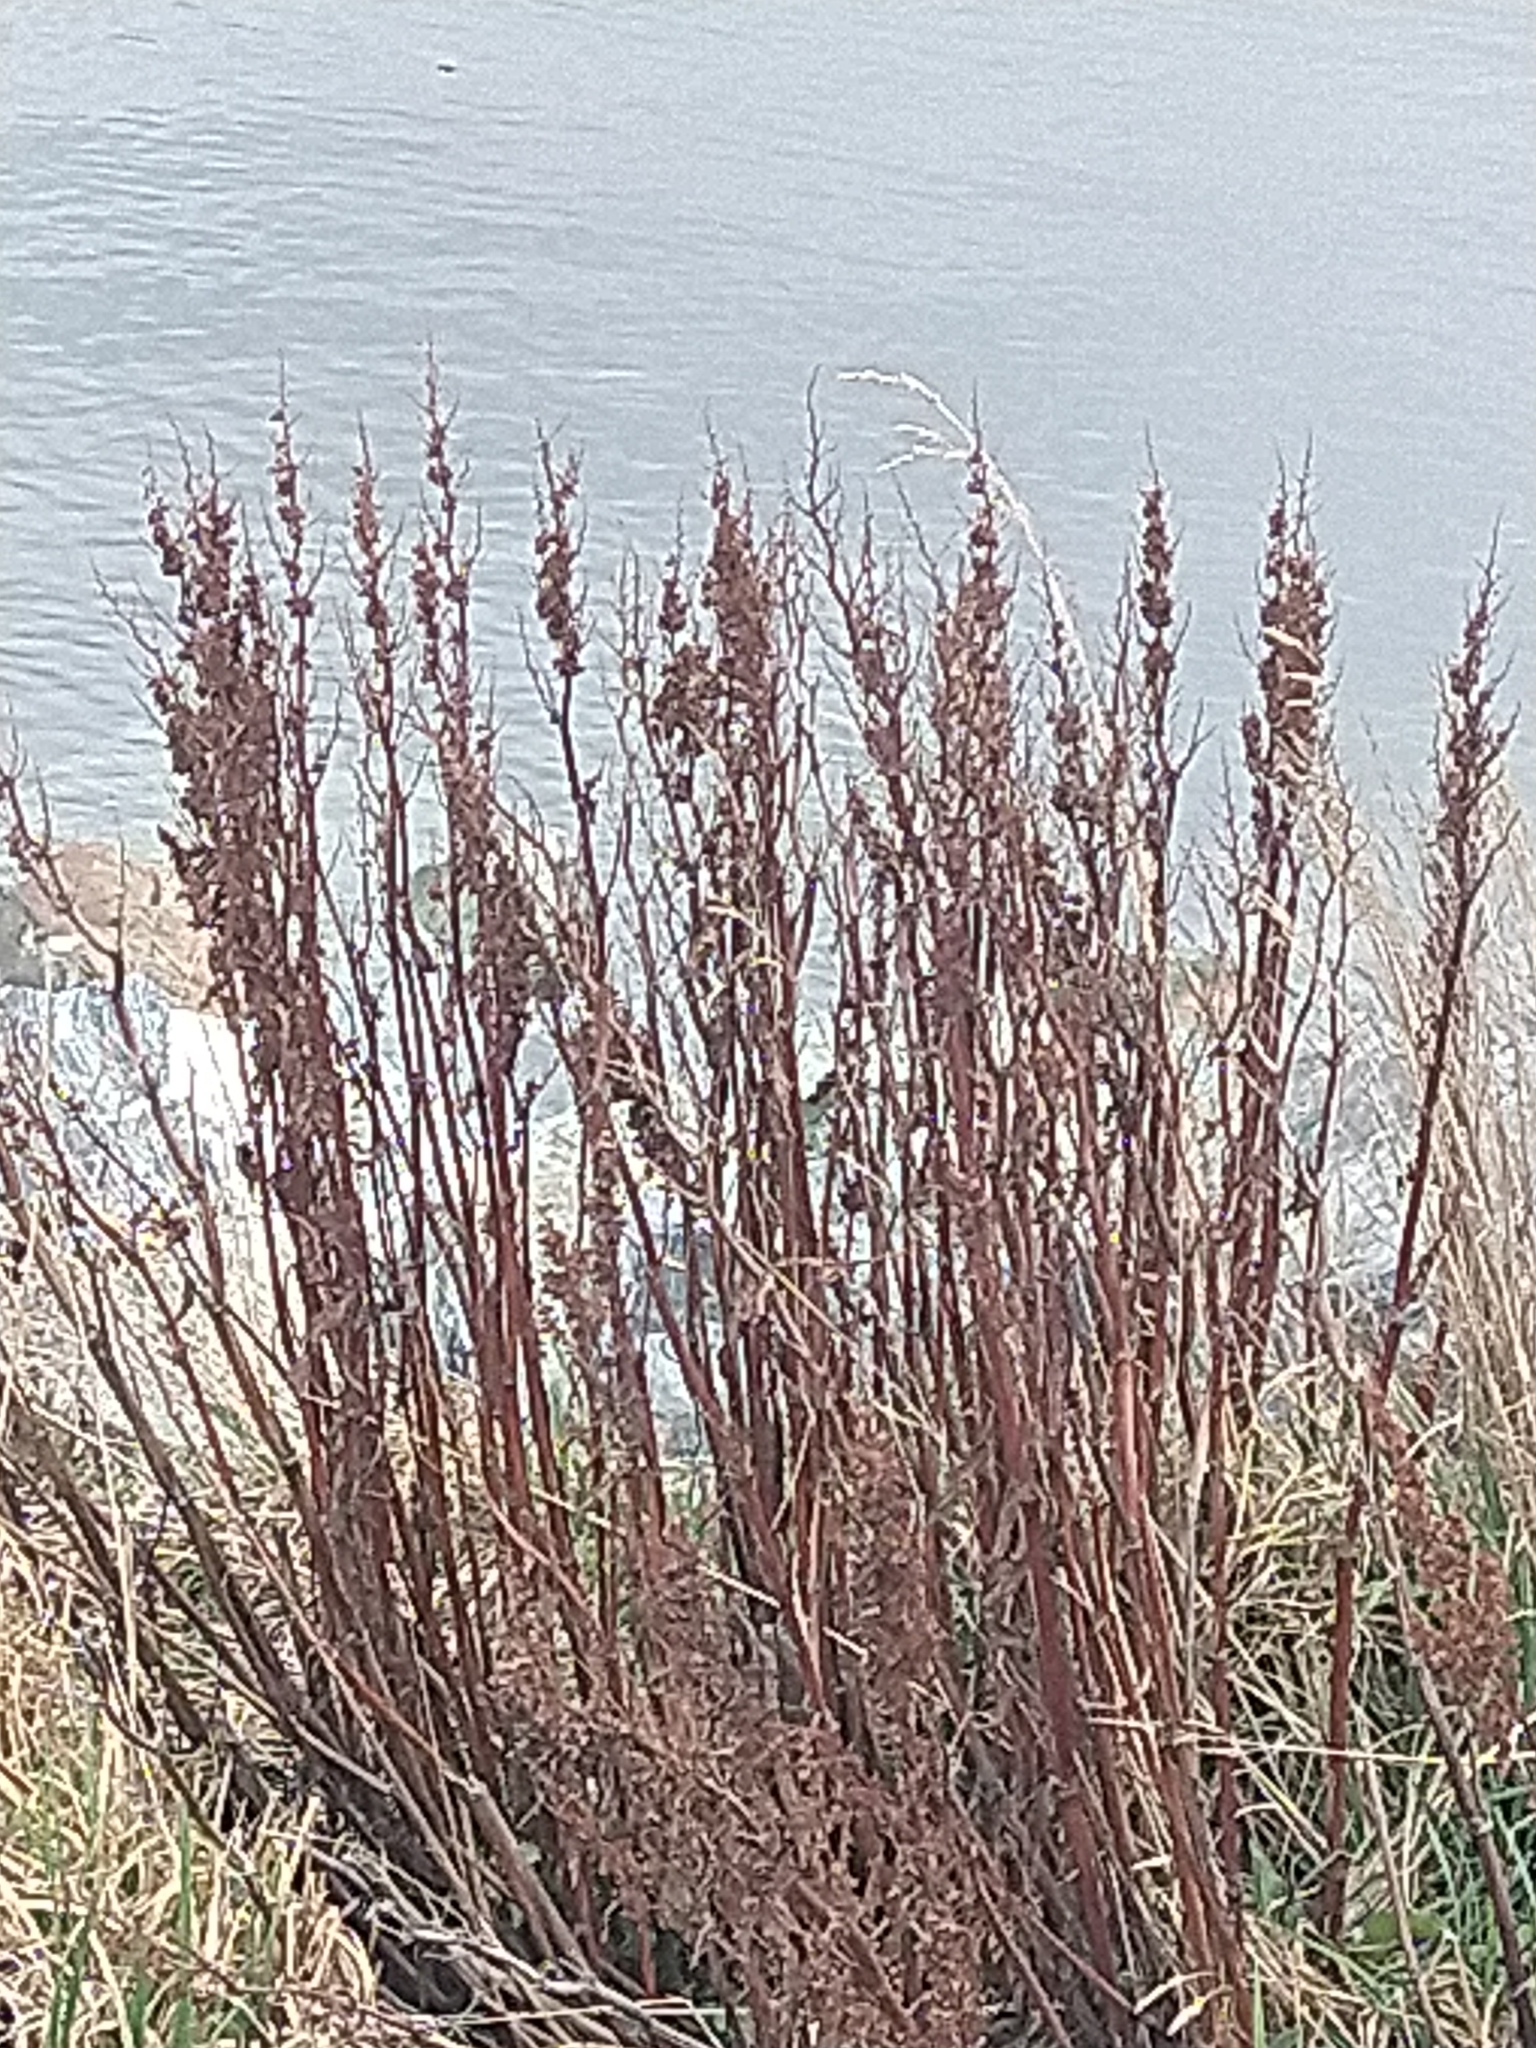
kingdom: Plantae
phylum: Tracheophyta
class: Magnoliopsida
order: Caryophyllales
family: Polygonaceae
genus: Rumex
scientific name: Rumex crispus
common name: Curled dock
